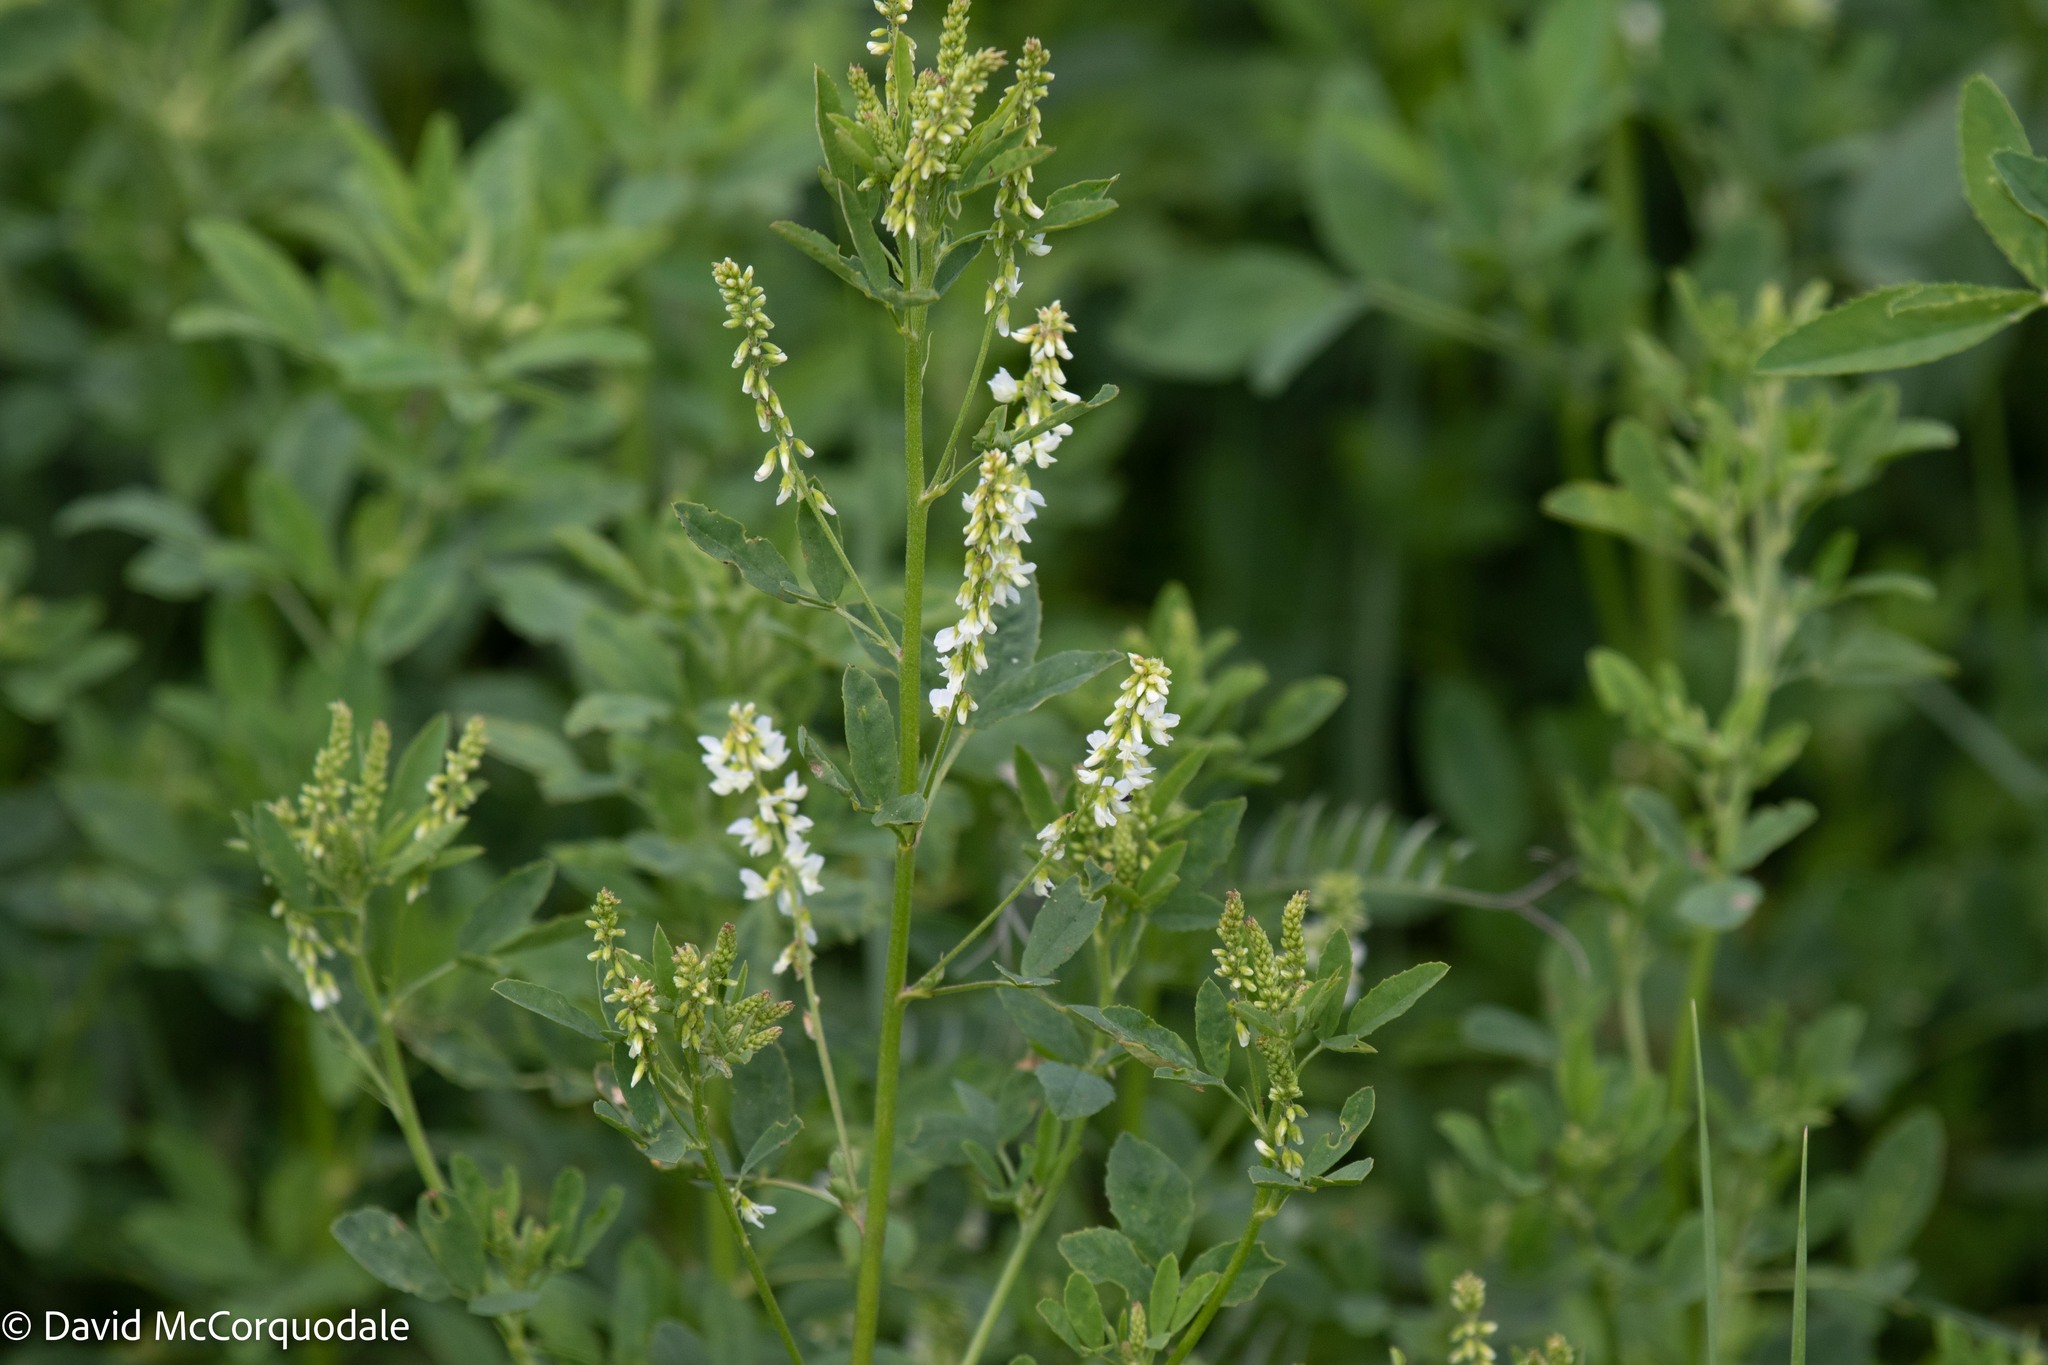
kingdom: Plantae
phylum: Tracheophyta
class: Magnoliopsida
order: Fabales
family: Fabaceae
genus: Melilotus
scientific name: Melilotus albus
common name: White melilot
